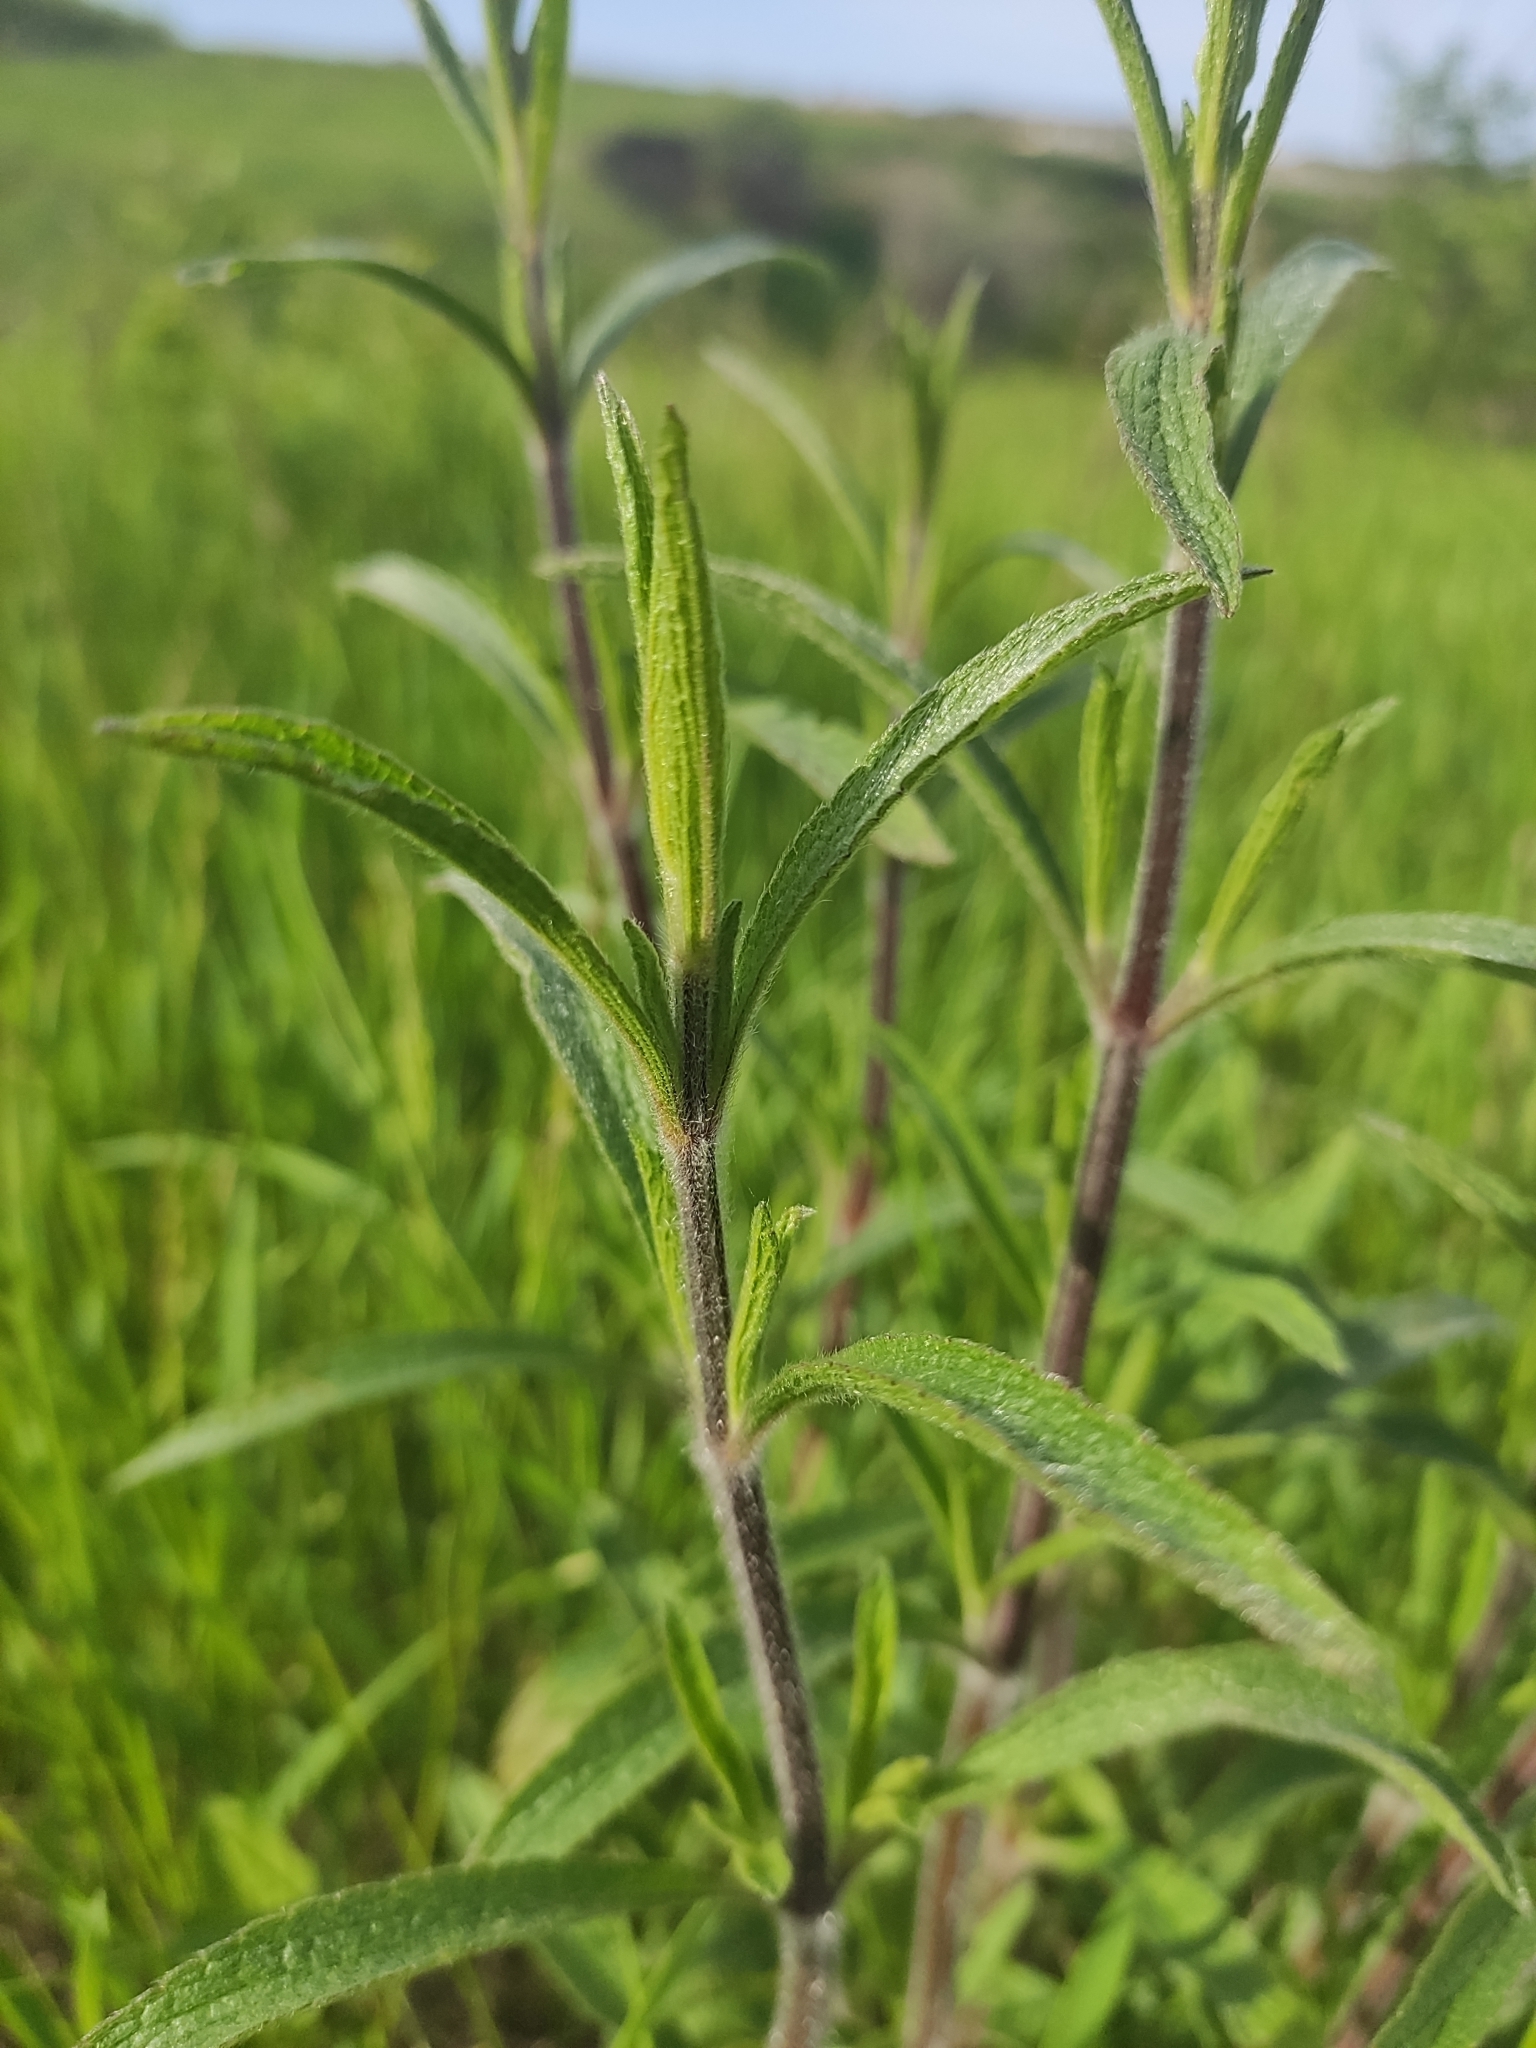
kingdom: Plantae
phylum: Tracheophyta
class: Magnoliopsida
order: Lamiales
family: Lamiaceae
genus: Stachys
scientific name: Stachys recta
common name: Perennial yellow-woundwort
